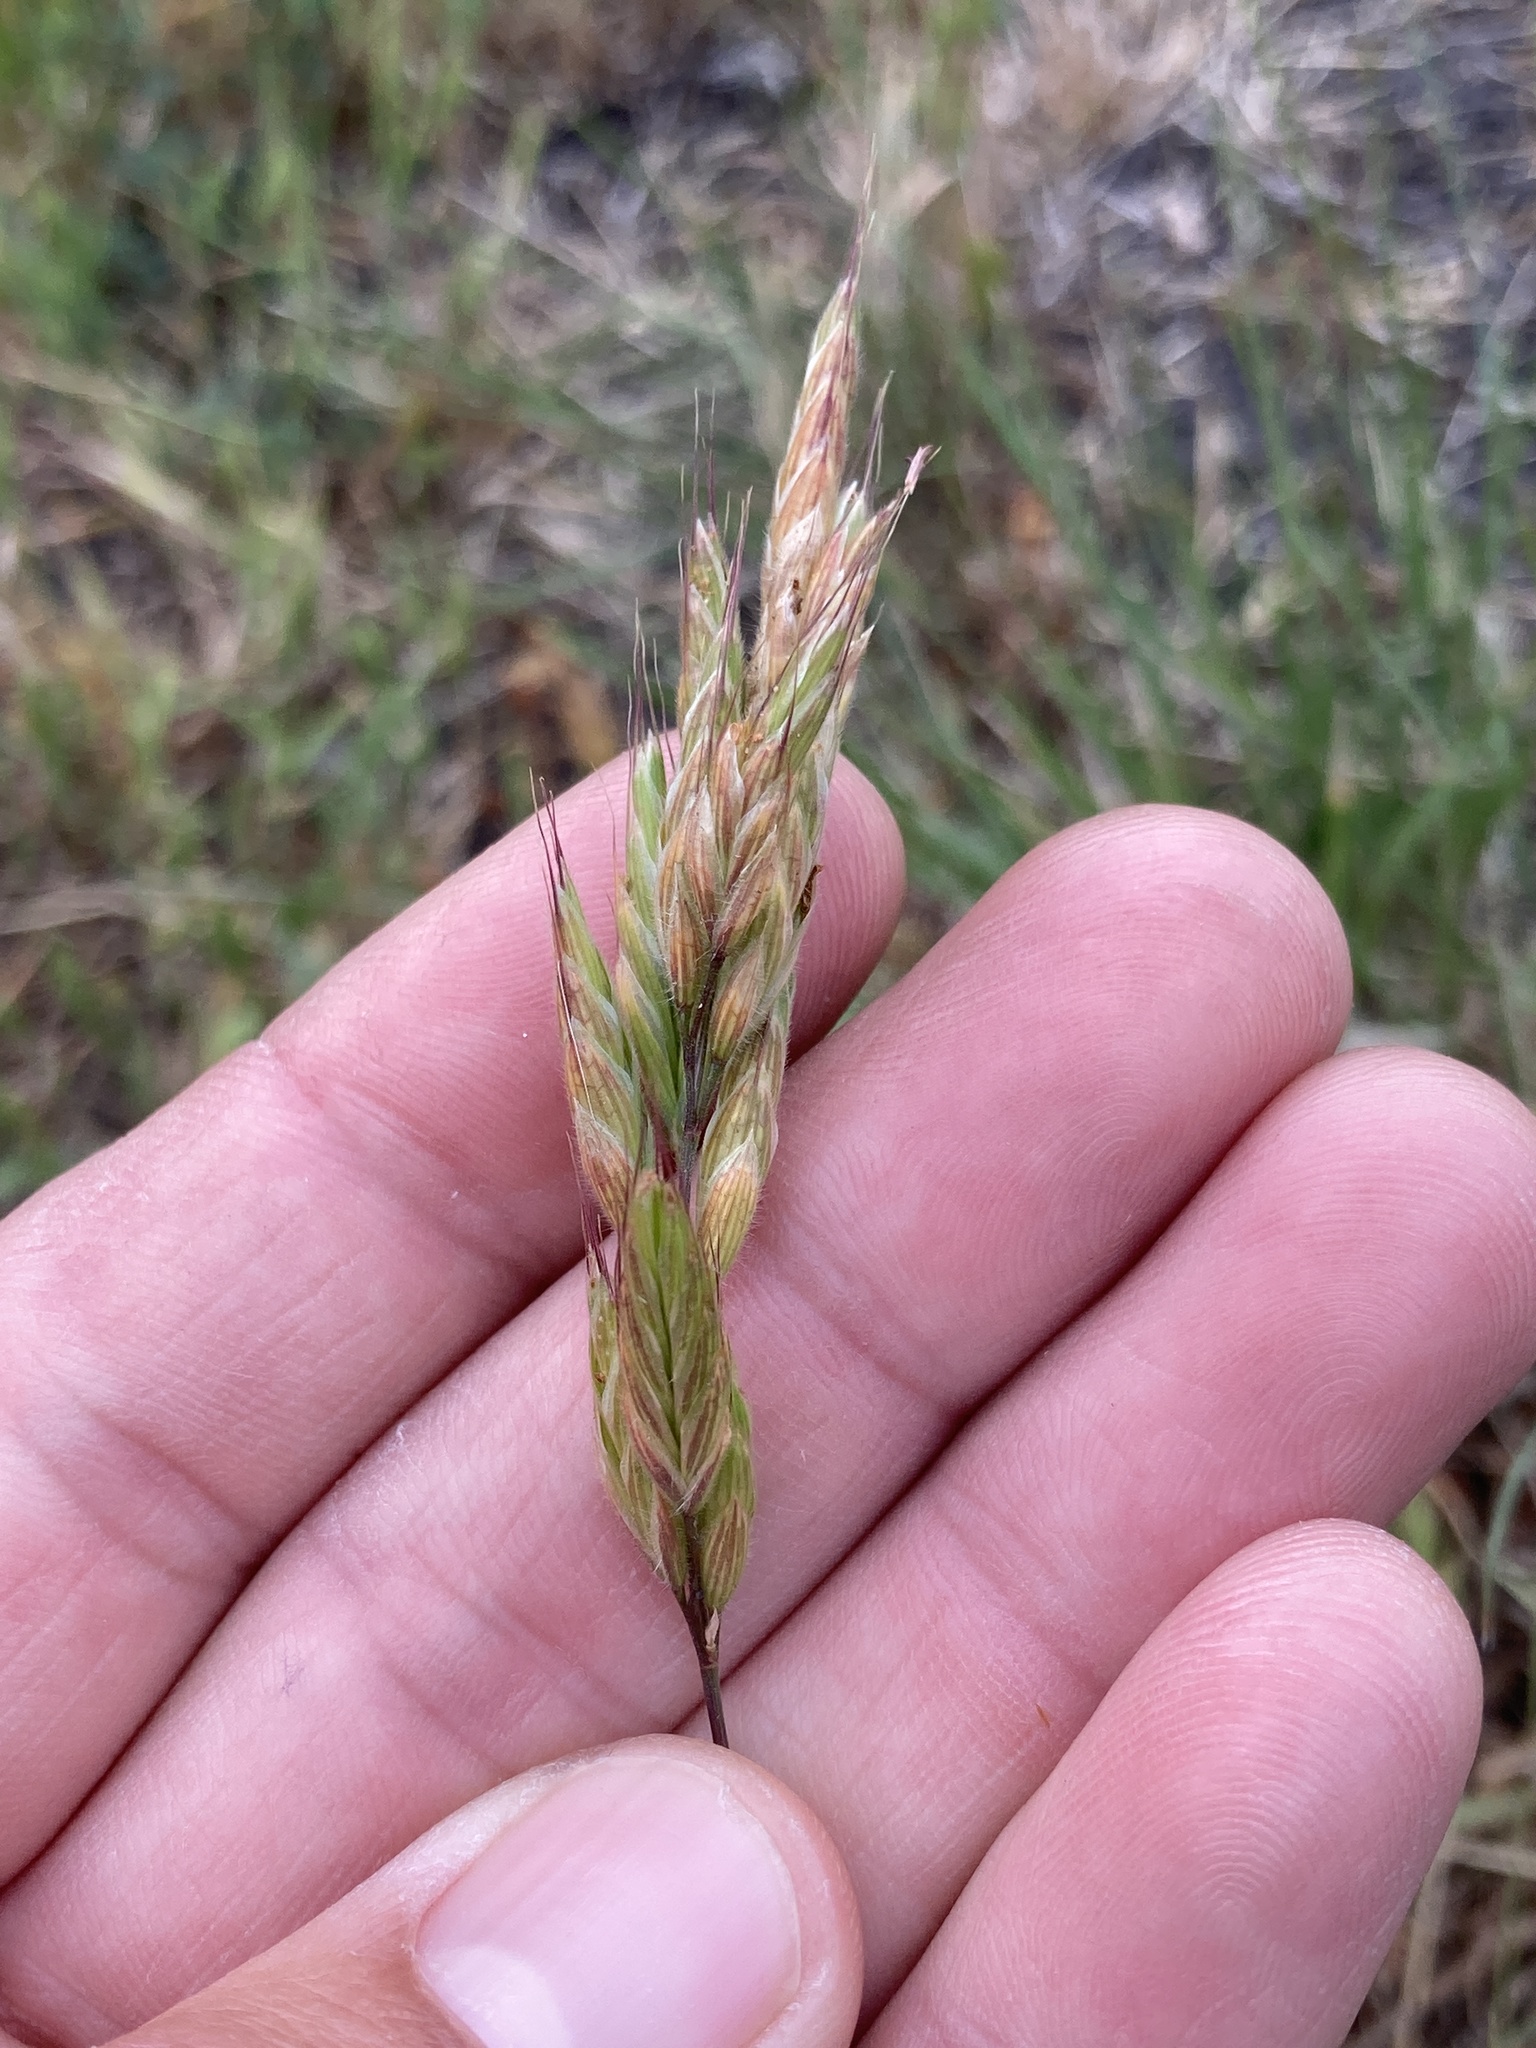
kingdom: Plantae
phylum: Tracheophyta
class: Liliopsida
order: Poales
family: Poaceae
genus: Bromus
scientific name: Bromus hordeaceus
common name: Soft brome
